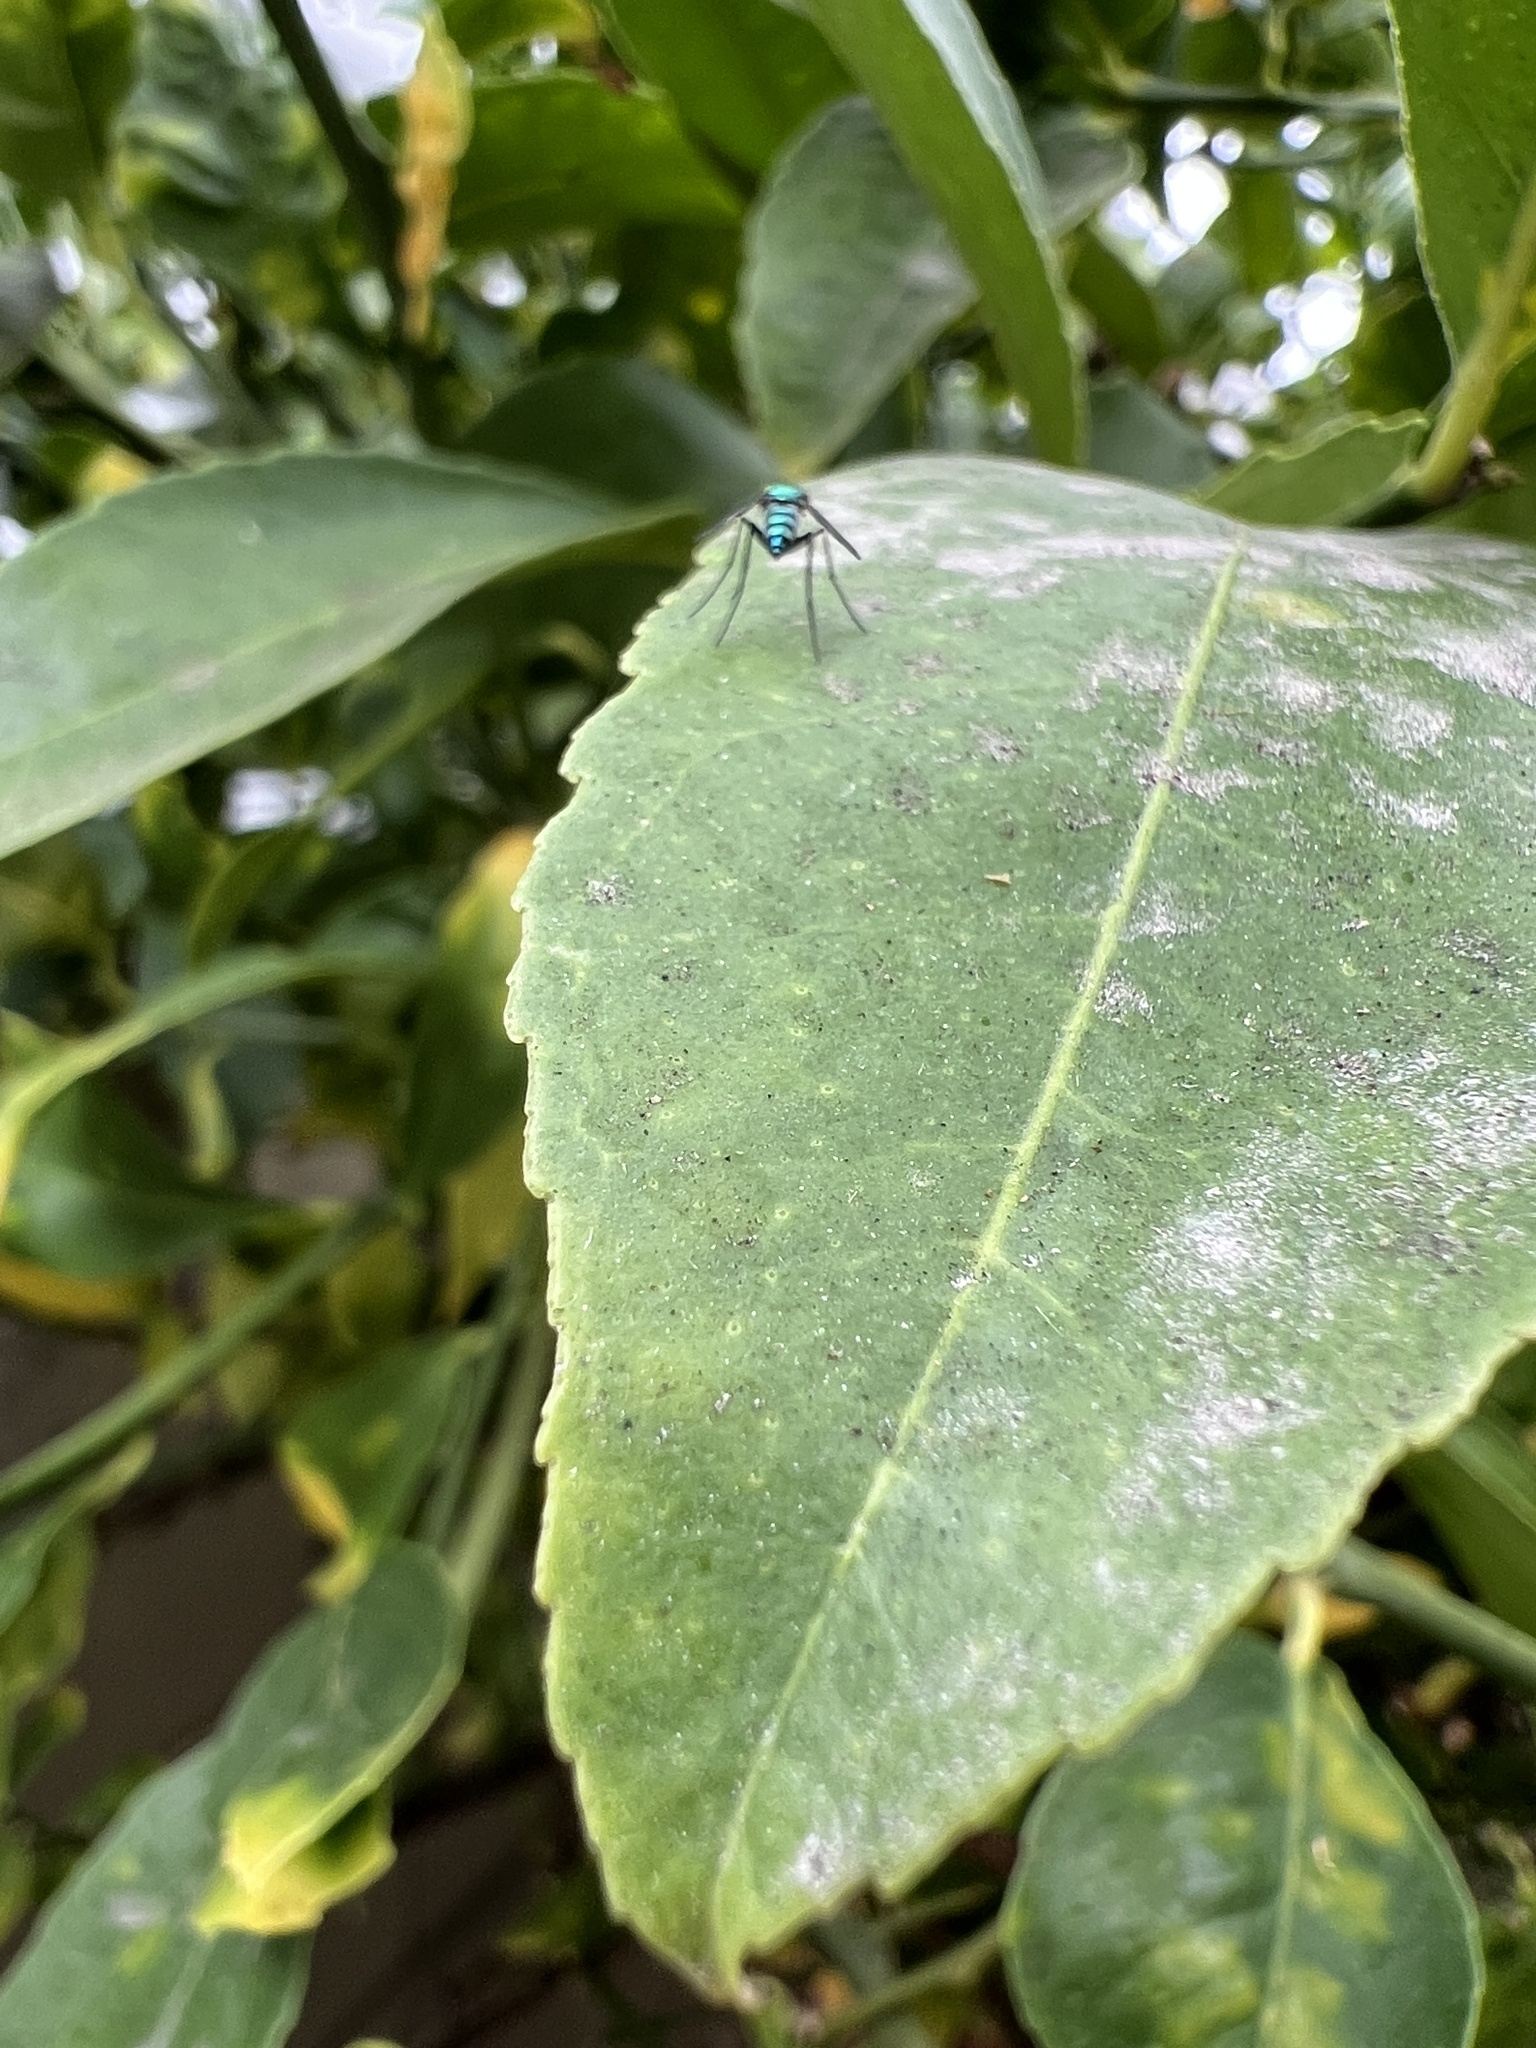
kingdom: Animalia
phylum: Arthropoda
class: Insecta
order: Diptera
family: Dolichopodidae
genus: Condylostylus
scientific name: Condylostylus longicornis
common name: Long-legged fly
